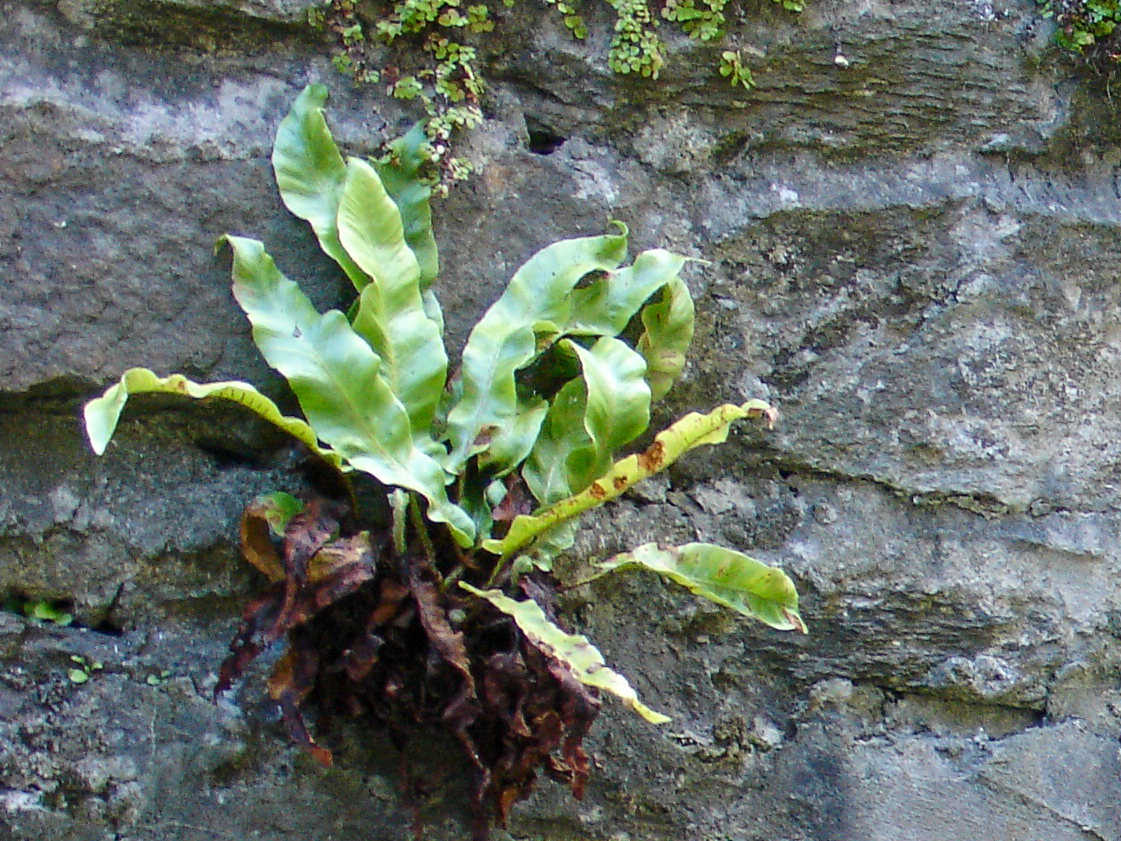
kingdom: Plantae
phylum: Tracheophyta
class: Polypodiopsida
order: Polypodiales
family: Aspleniaceae
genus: Asplenium
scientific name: Asplenium scolopendrium
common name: Hart's-tongue fern
